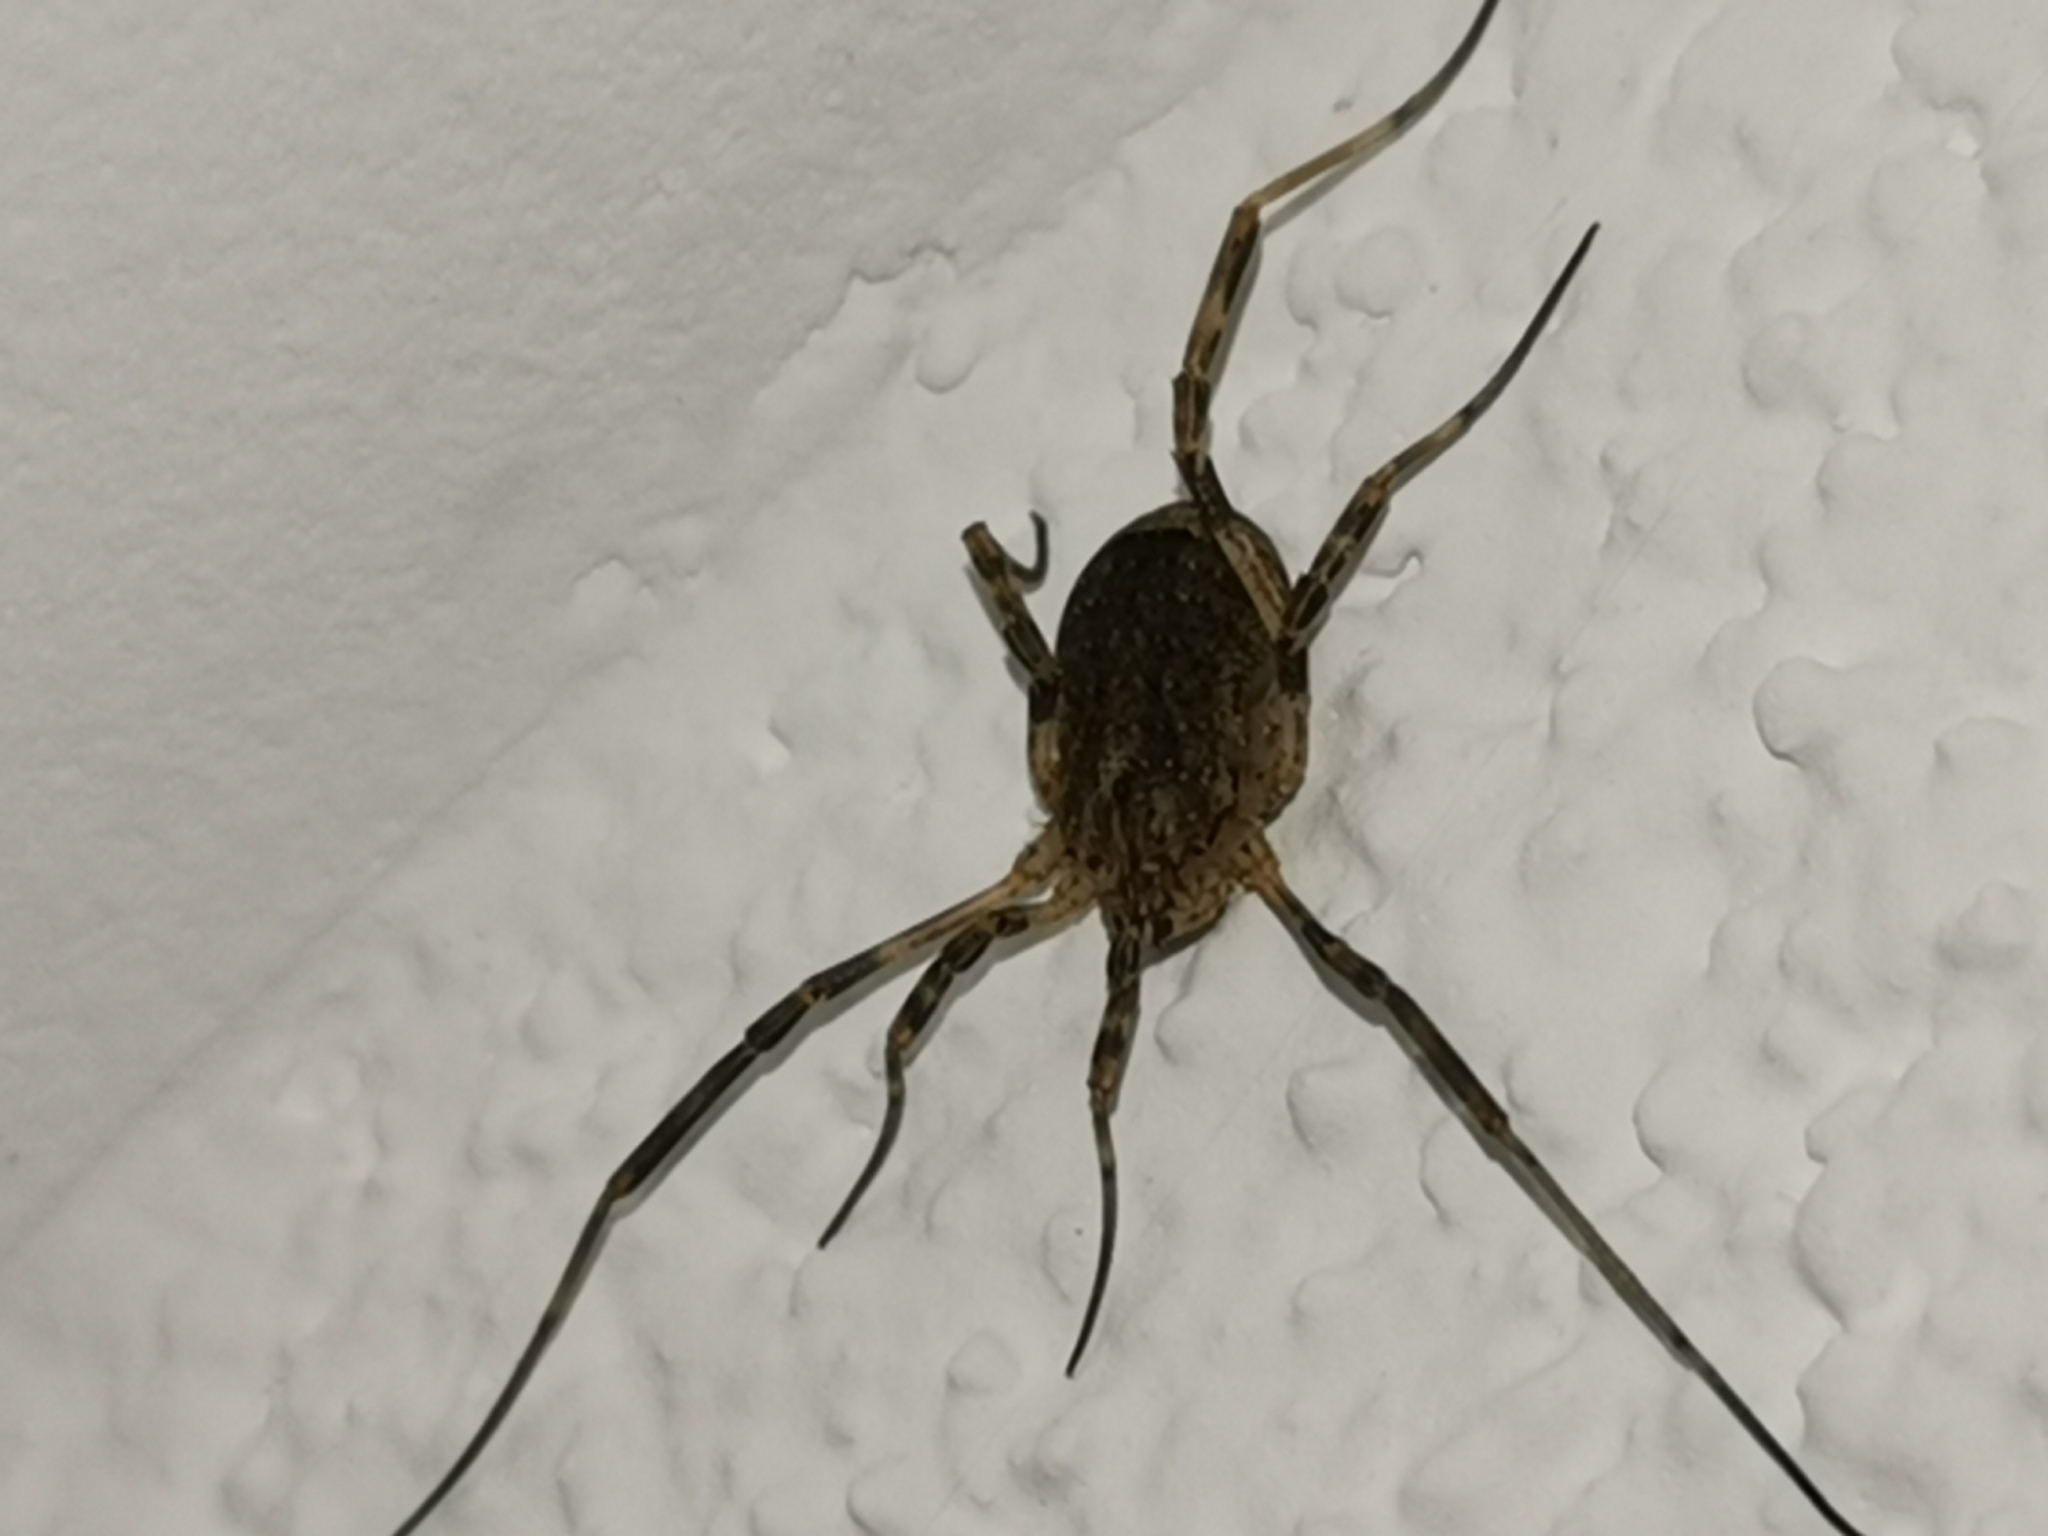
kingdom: Animalia
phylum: Arthropoda
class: Arachnida
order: Opiliones
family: Phalangiidae
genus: Odiellus
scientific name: Odiellus spinosus
